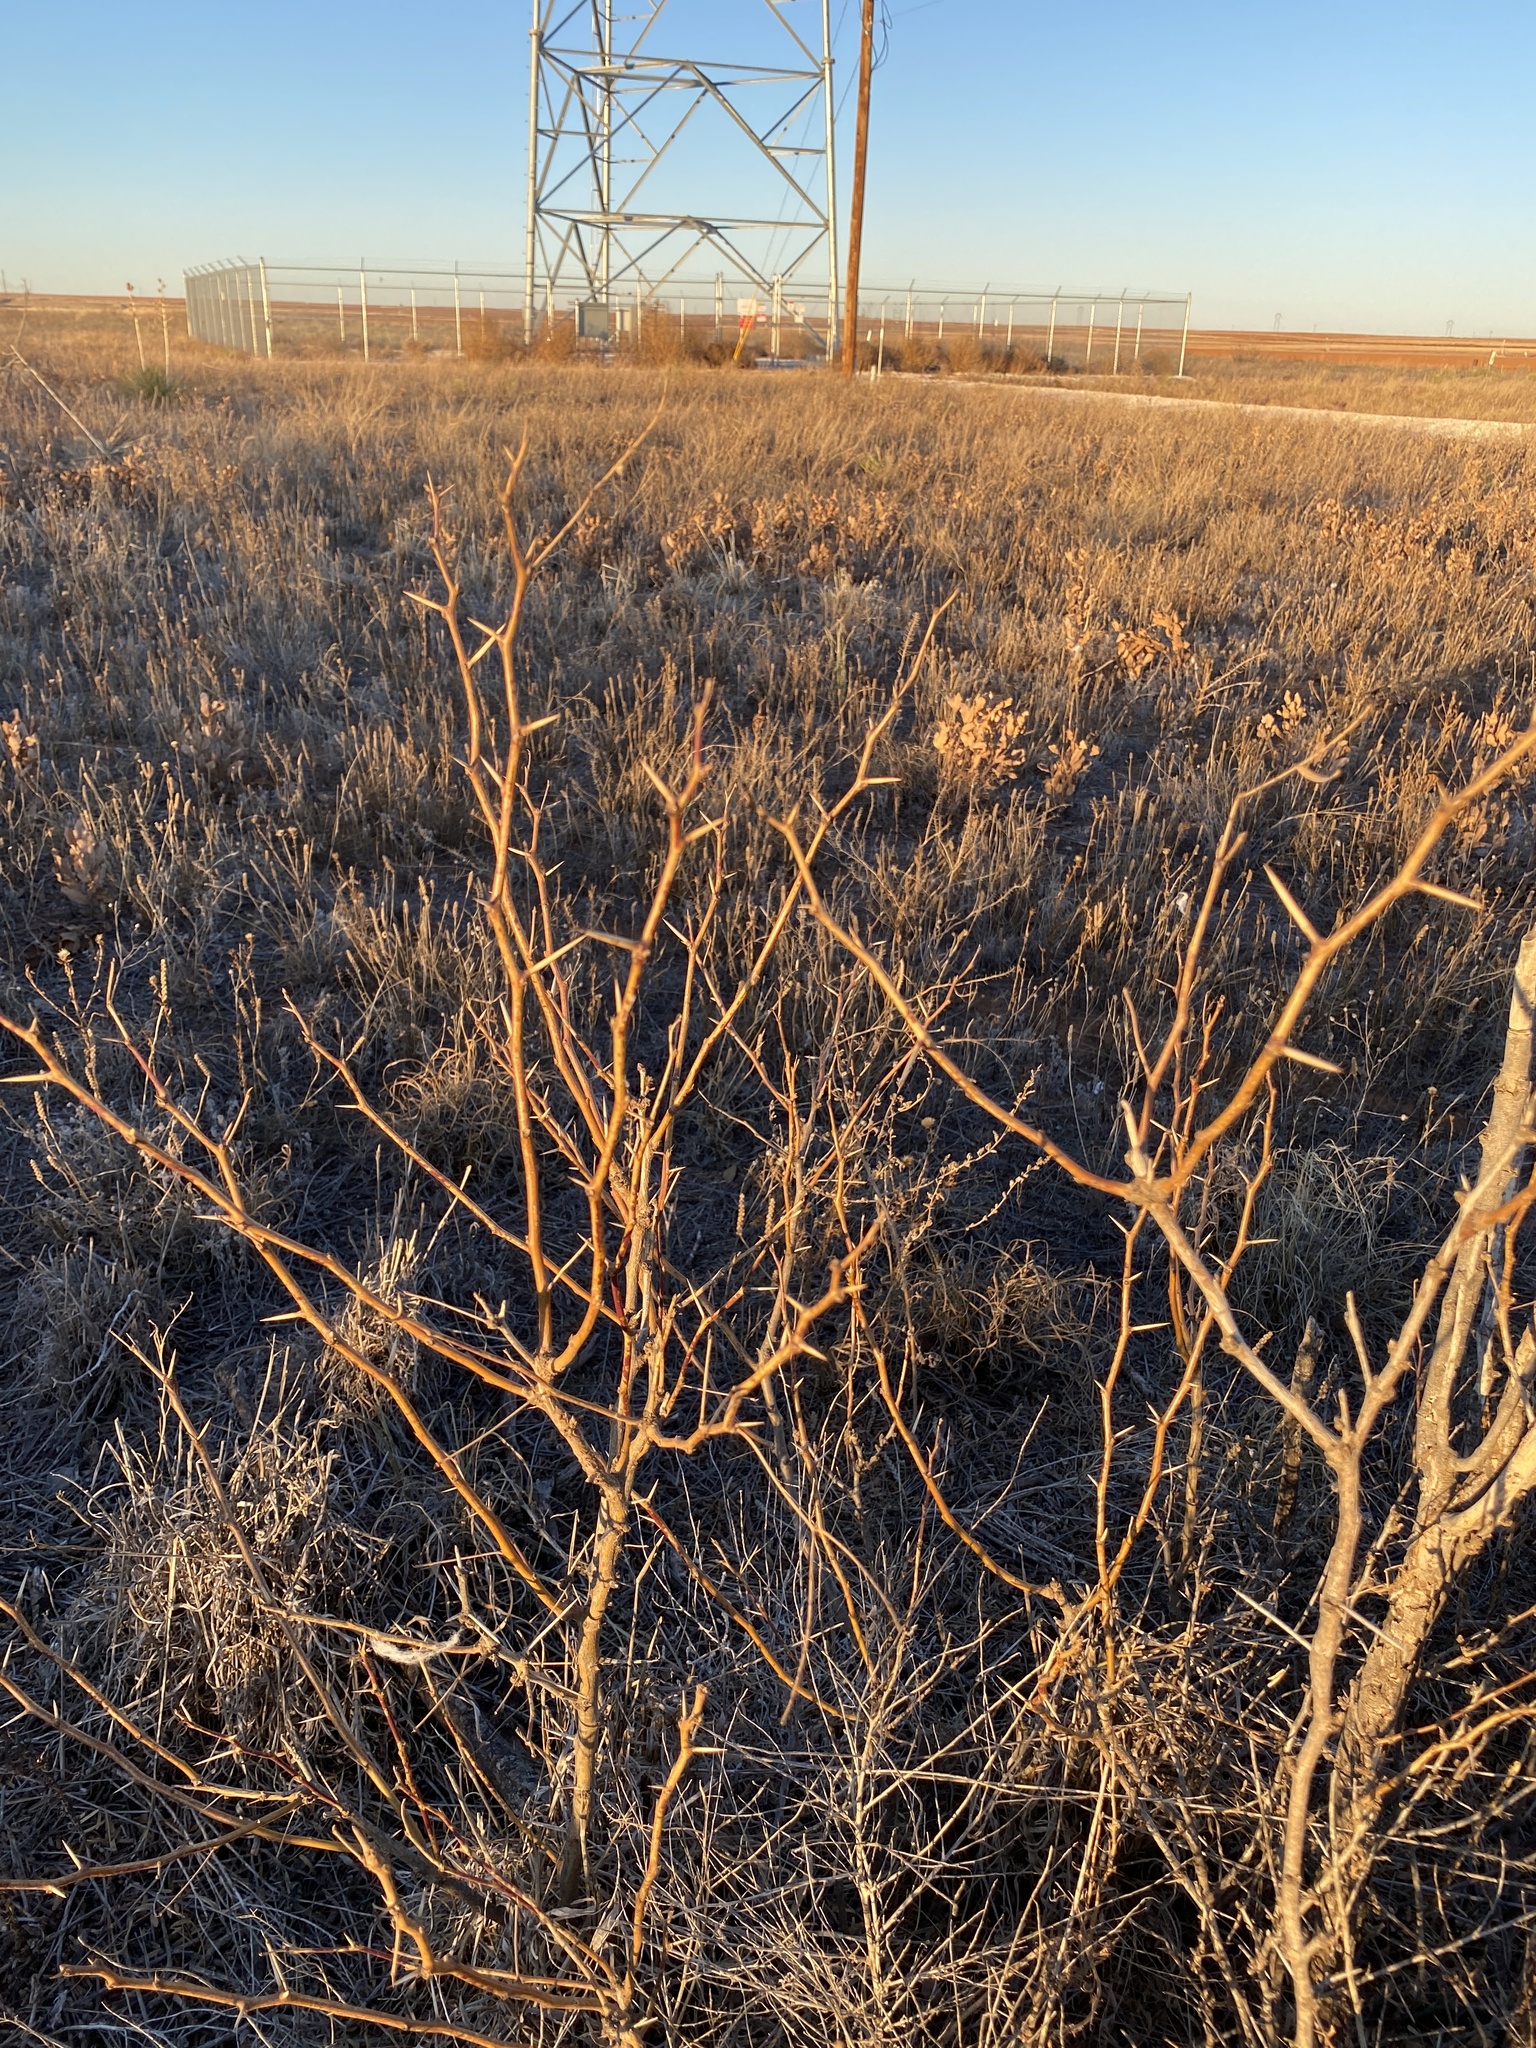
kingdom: Plantae
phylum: Tracheophyta
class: Magnoliopsida
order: Fabales
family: Fabaceae
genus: Prosopis
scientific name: Prosopis glandulosa
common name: Honey mesquite
